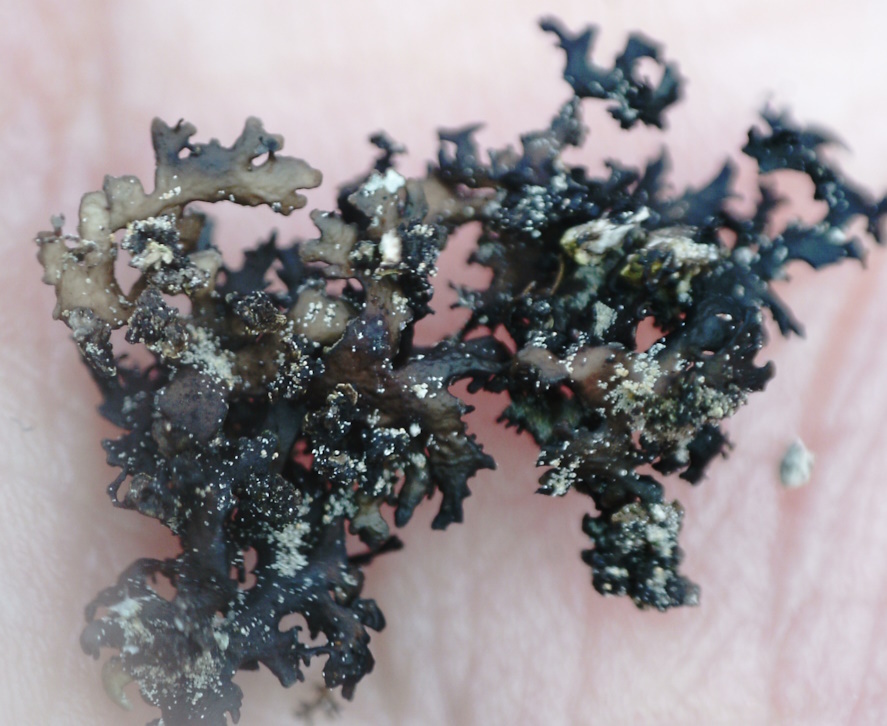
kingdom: Fungi
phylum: Ascomycota
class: Lecanoromycetes
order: Lecanorales
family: Parmeliaceae
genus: Melanelia
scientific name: Melanelia commixta
